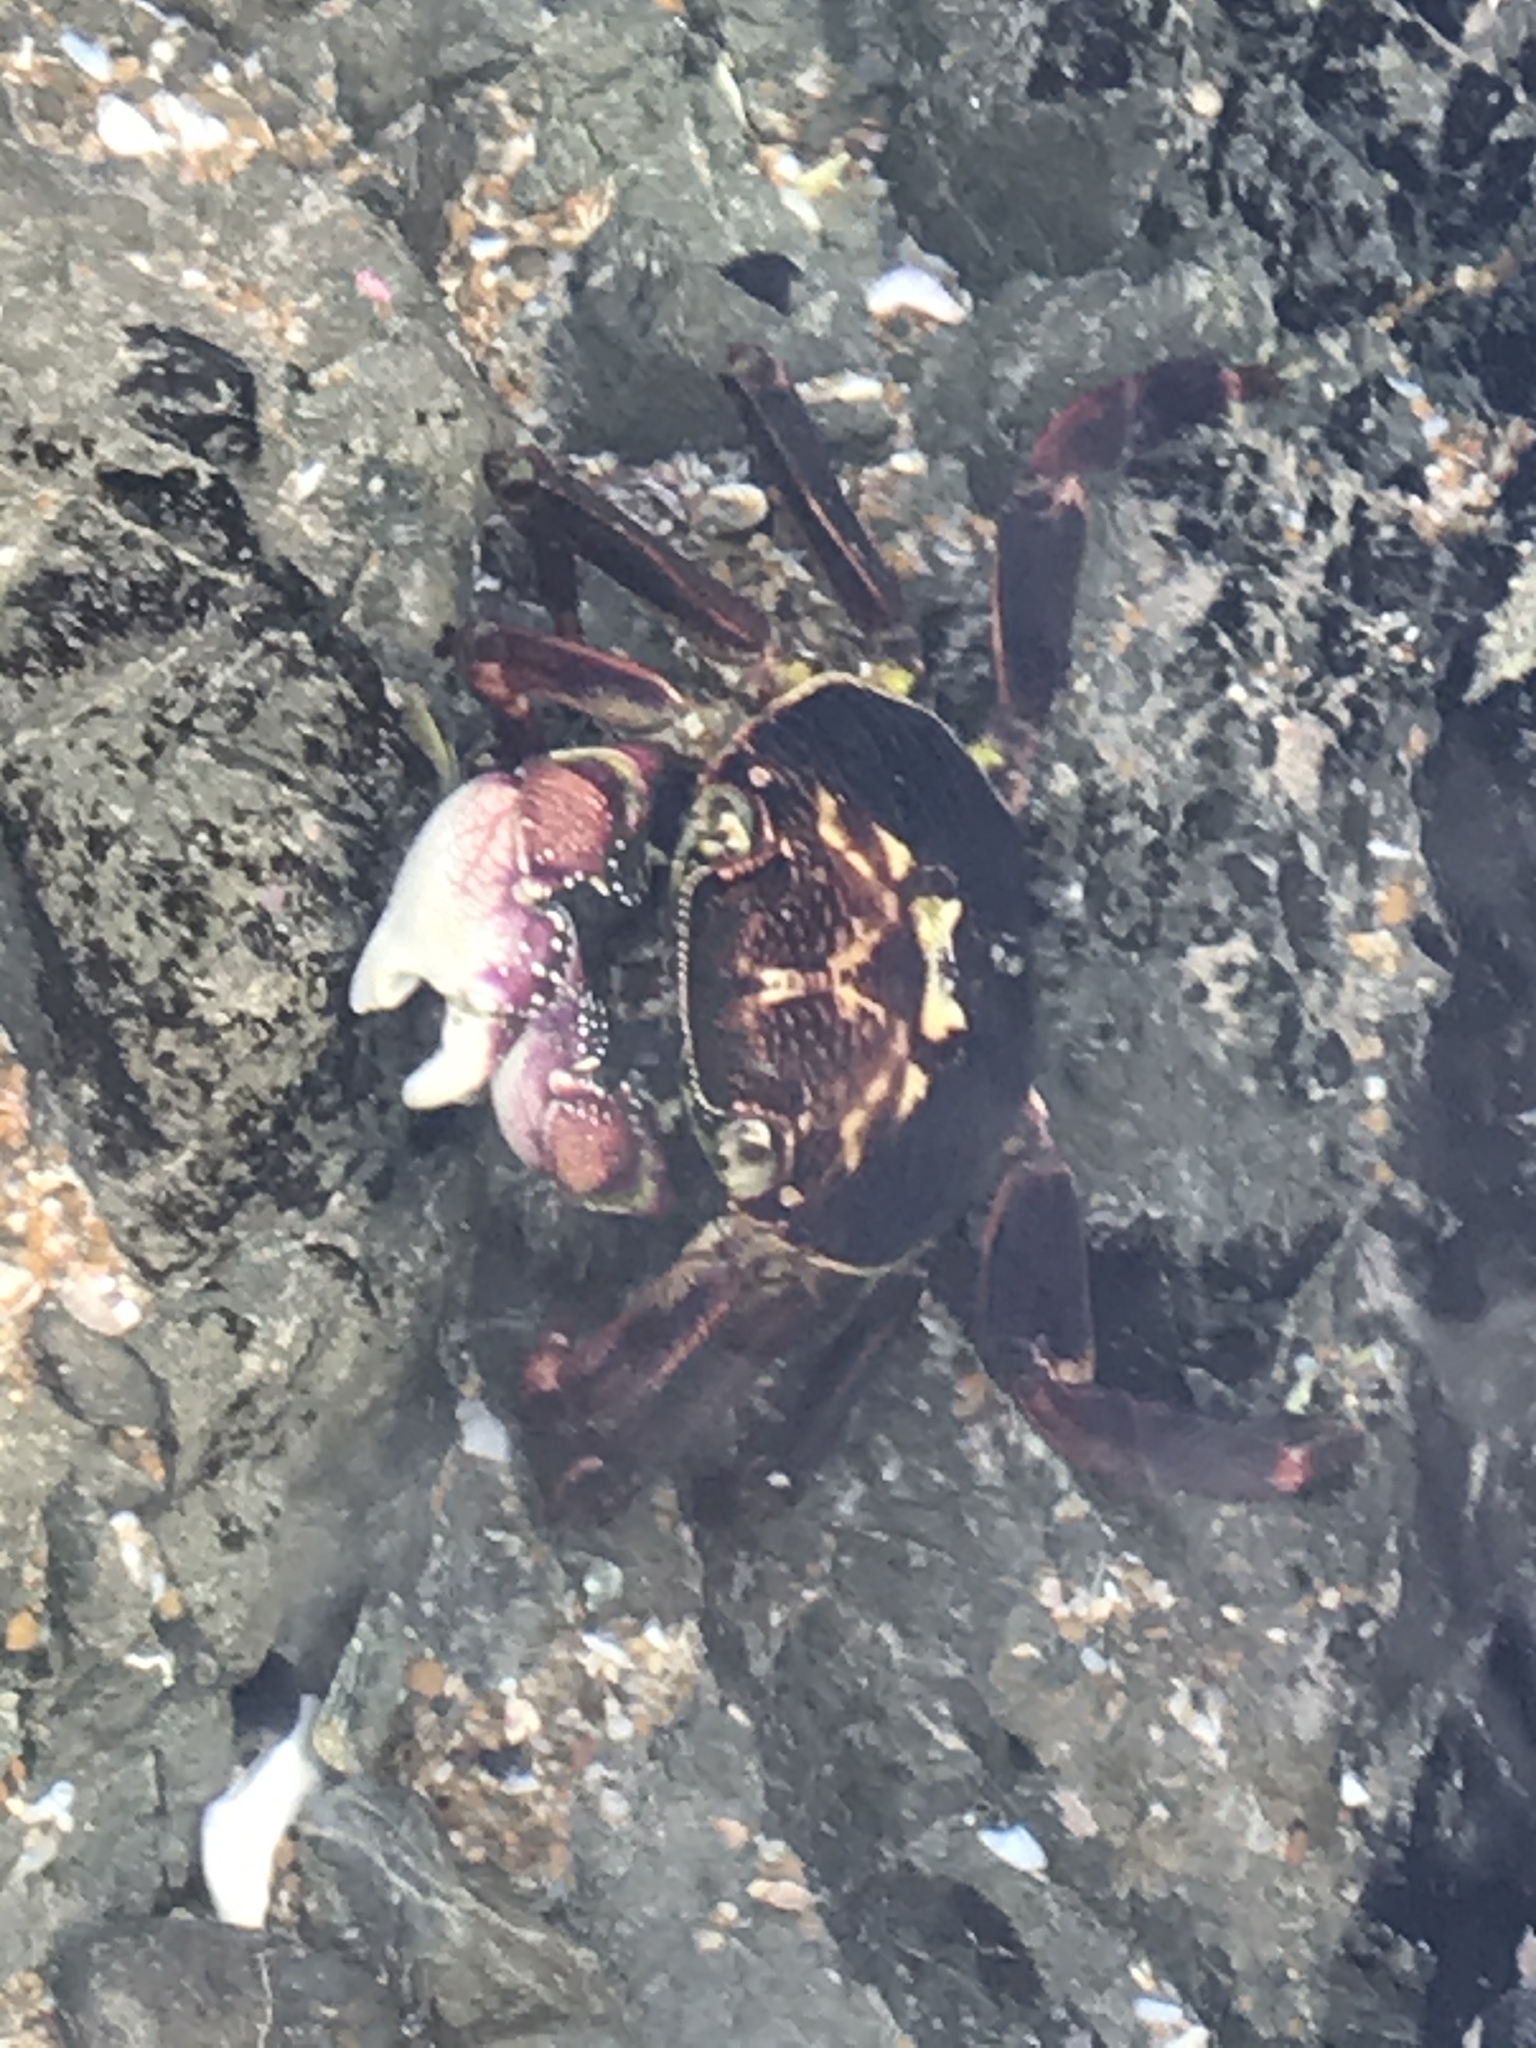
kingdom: Animalia
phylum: Arthropoda
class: Malacostraca
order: Decapoda
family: Grapsidae
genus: Leptograpsus
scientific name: Leptograpsus variegatus
